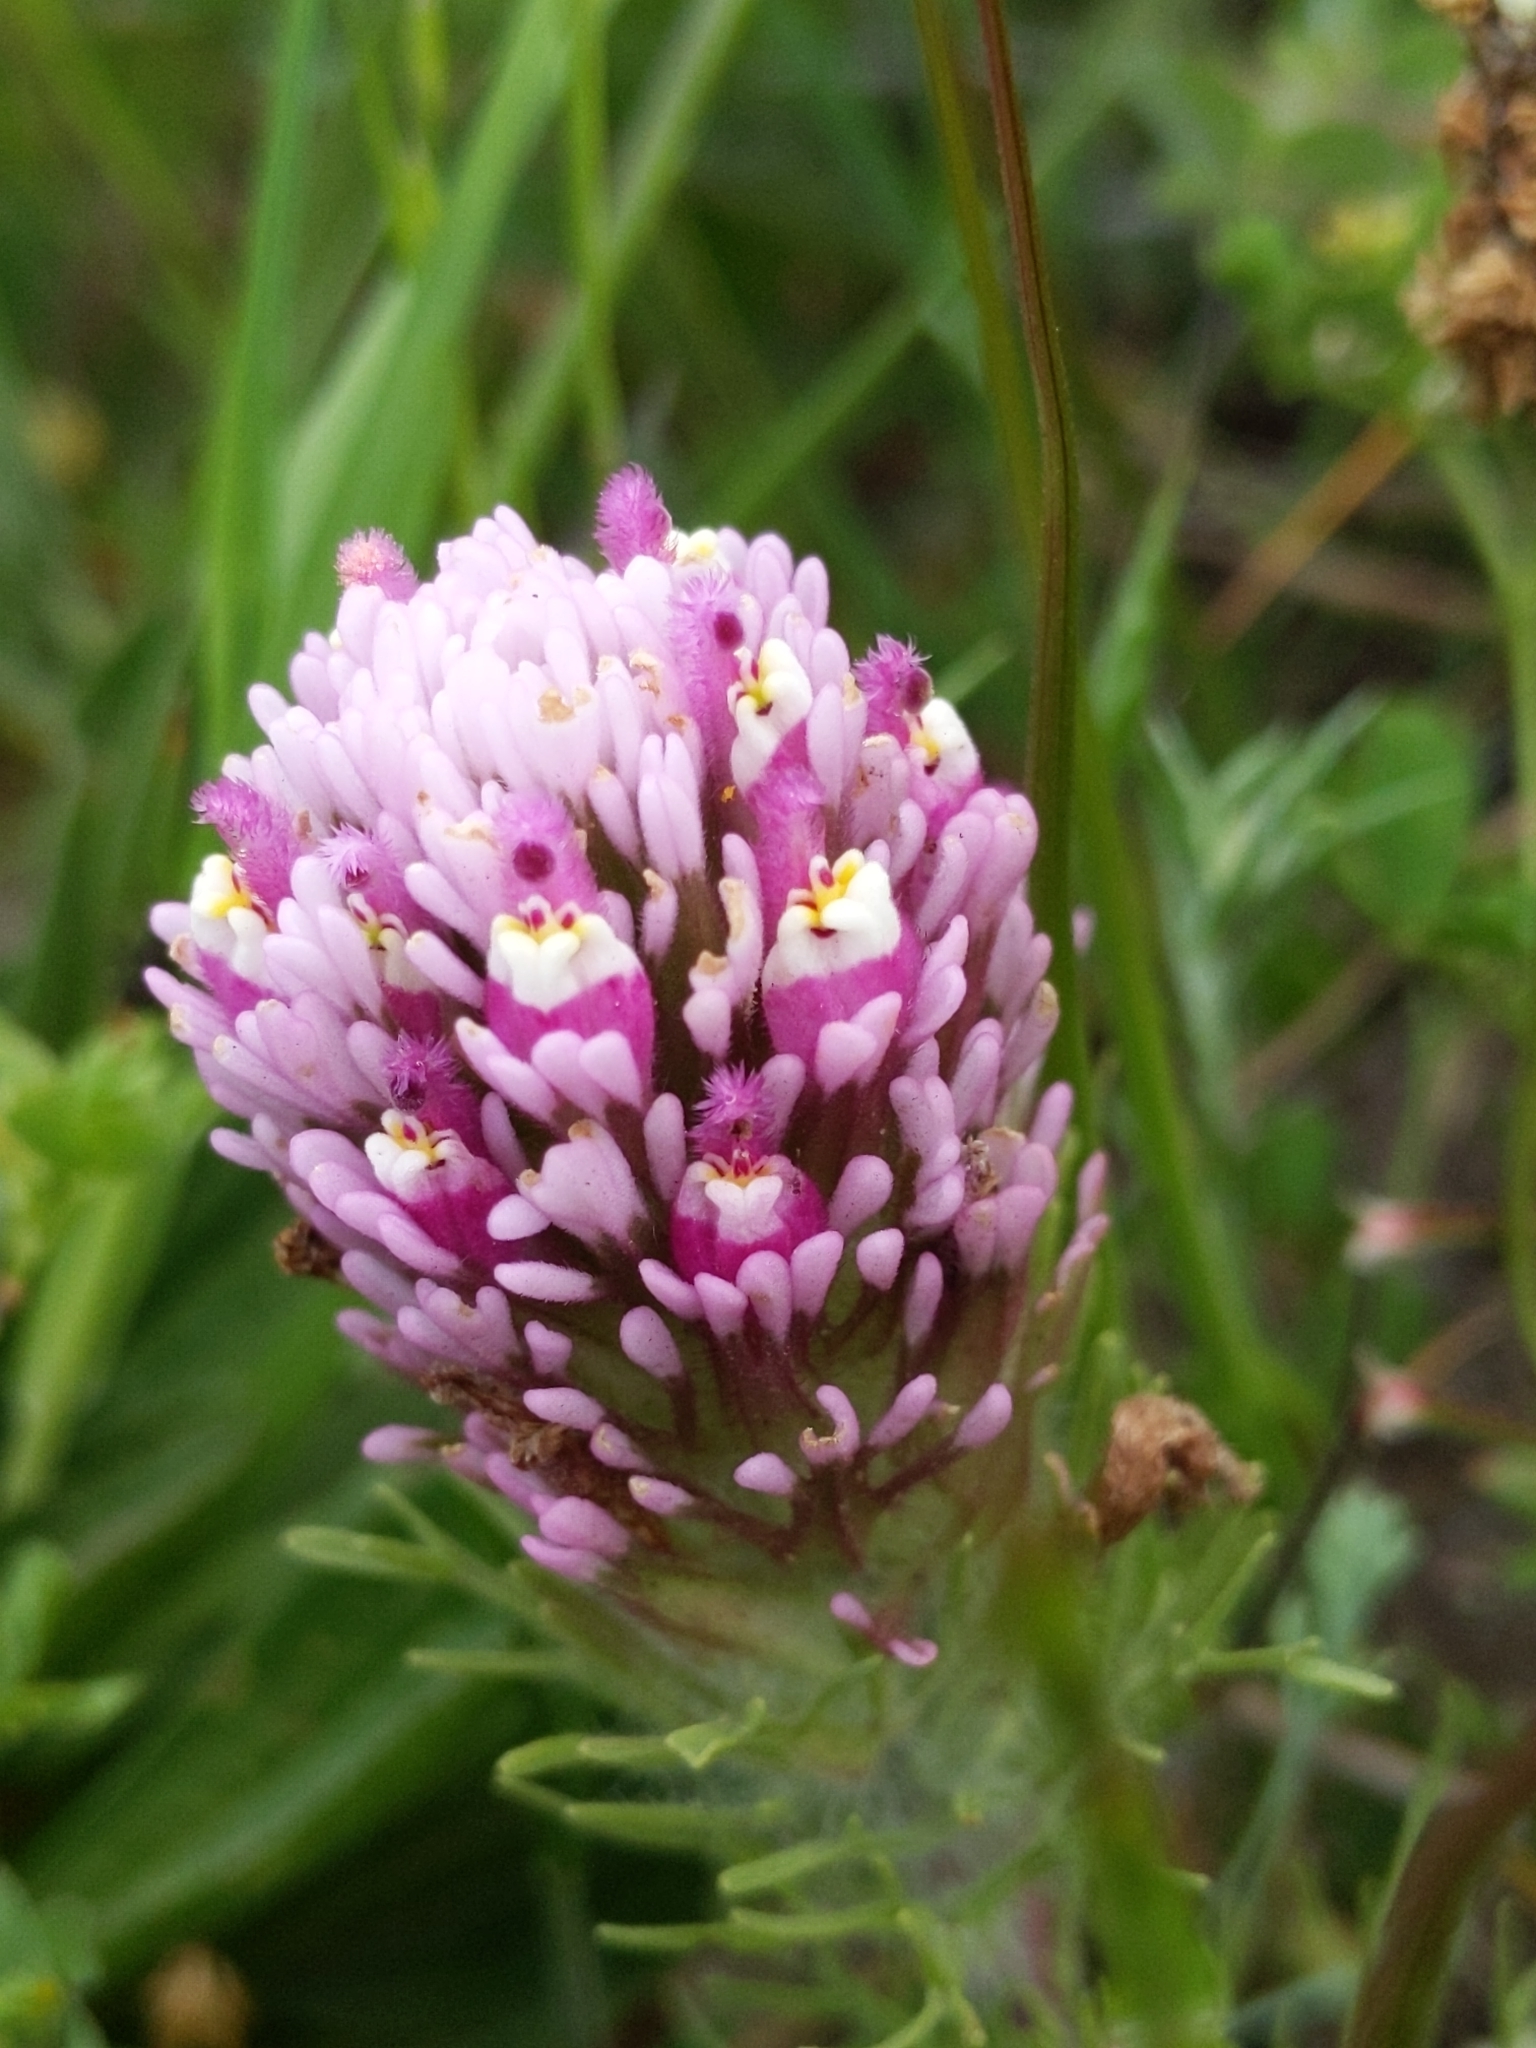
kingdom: Plantae
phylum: Tracheophyta
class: Magnoliopsida
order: Lamiales
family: Orobanchaceae
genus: Castilleja
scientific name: Castilleja exserta
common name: Purple owl-clover
